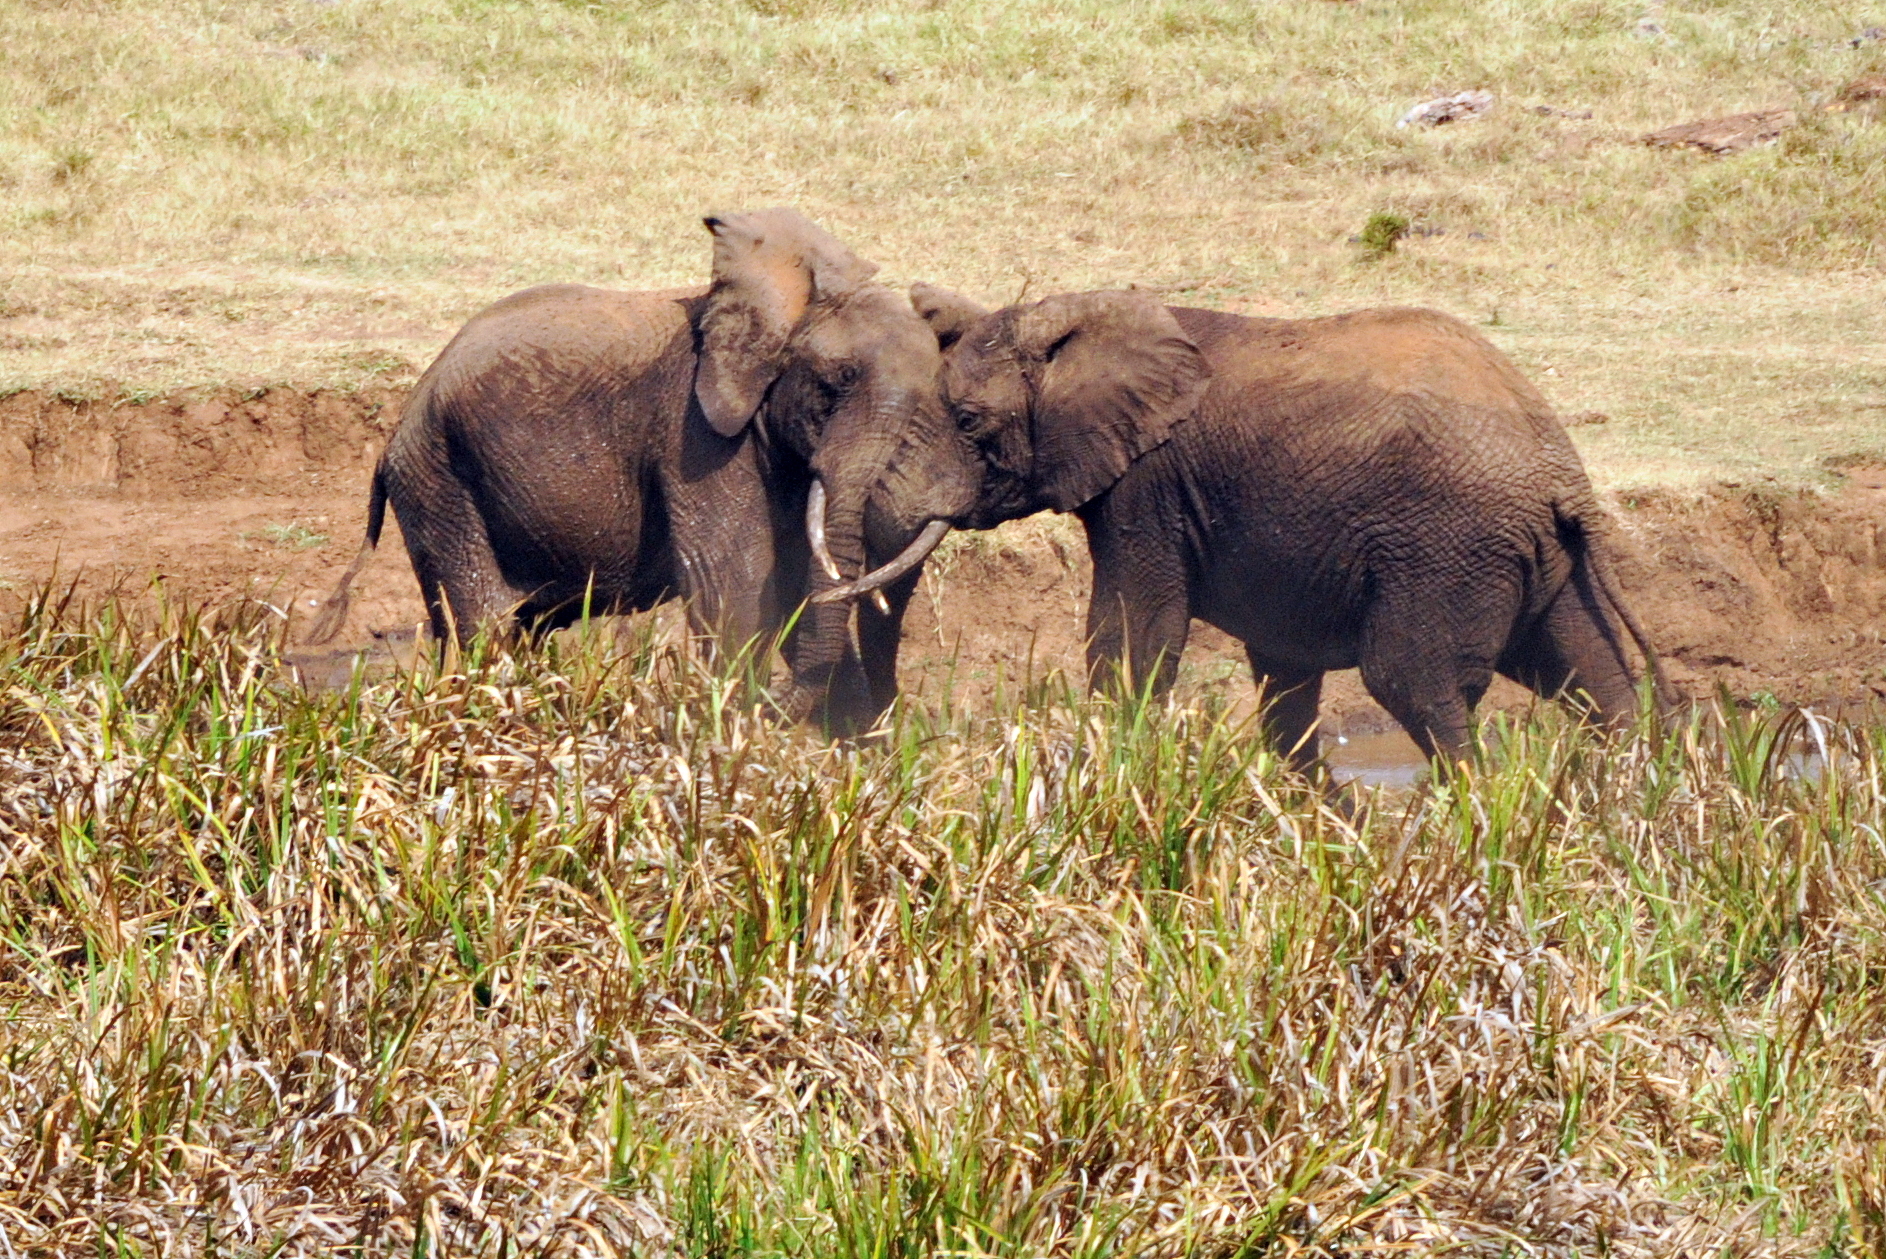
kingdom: Animalia
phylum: Chordata
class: Mammalia
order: Proboscidea
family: Elephantidae
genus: Loxodonta
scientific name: Loxodonta africana
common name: African elephant
